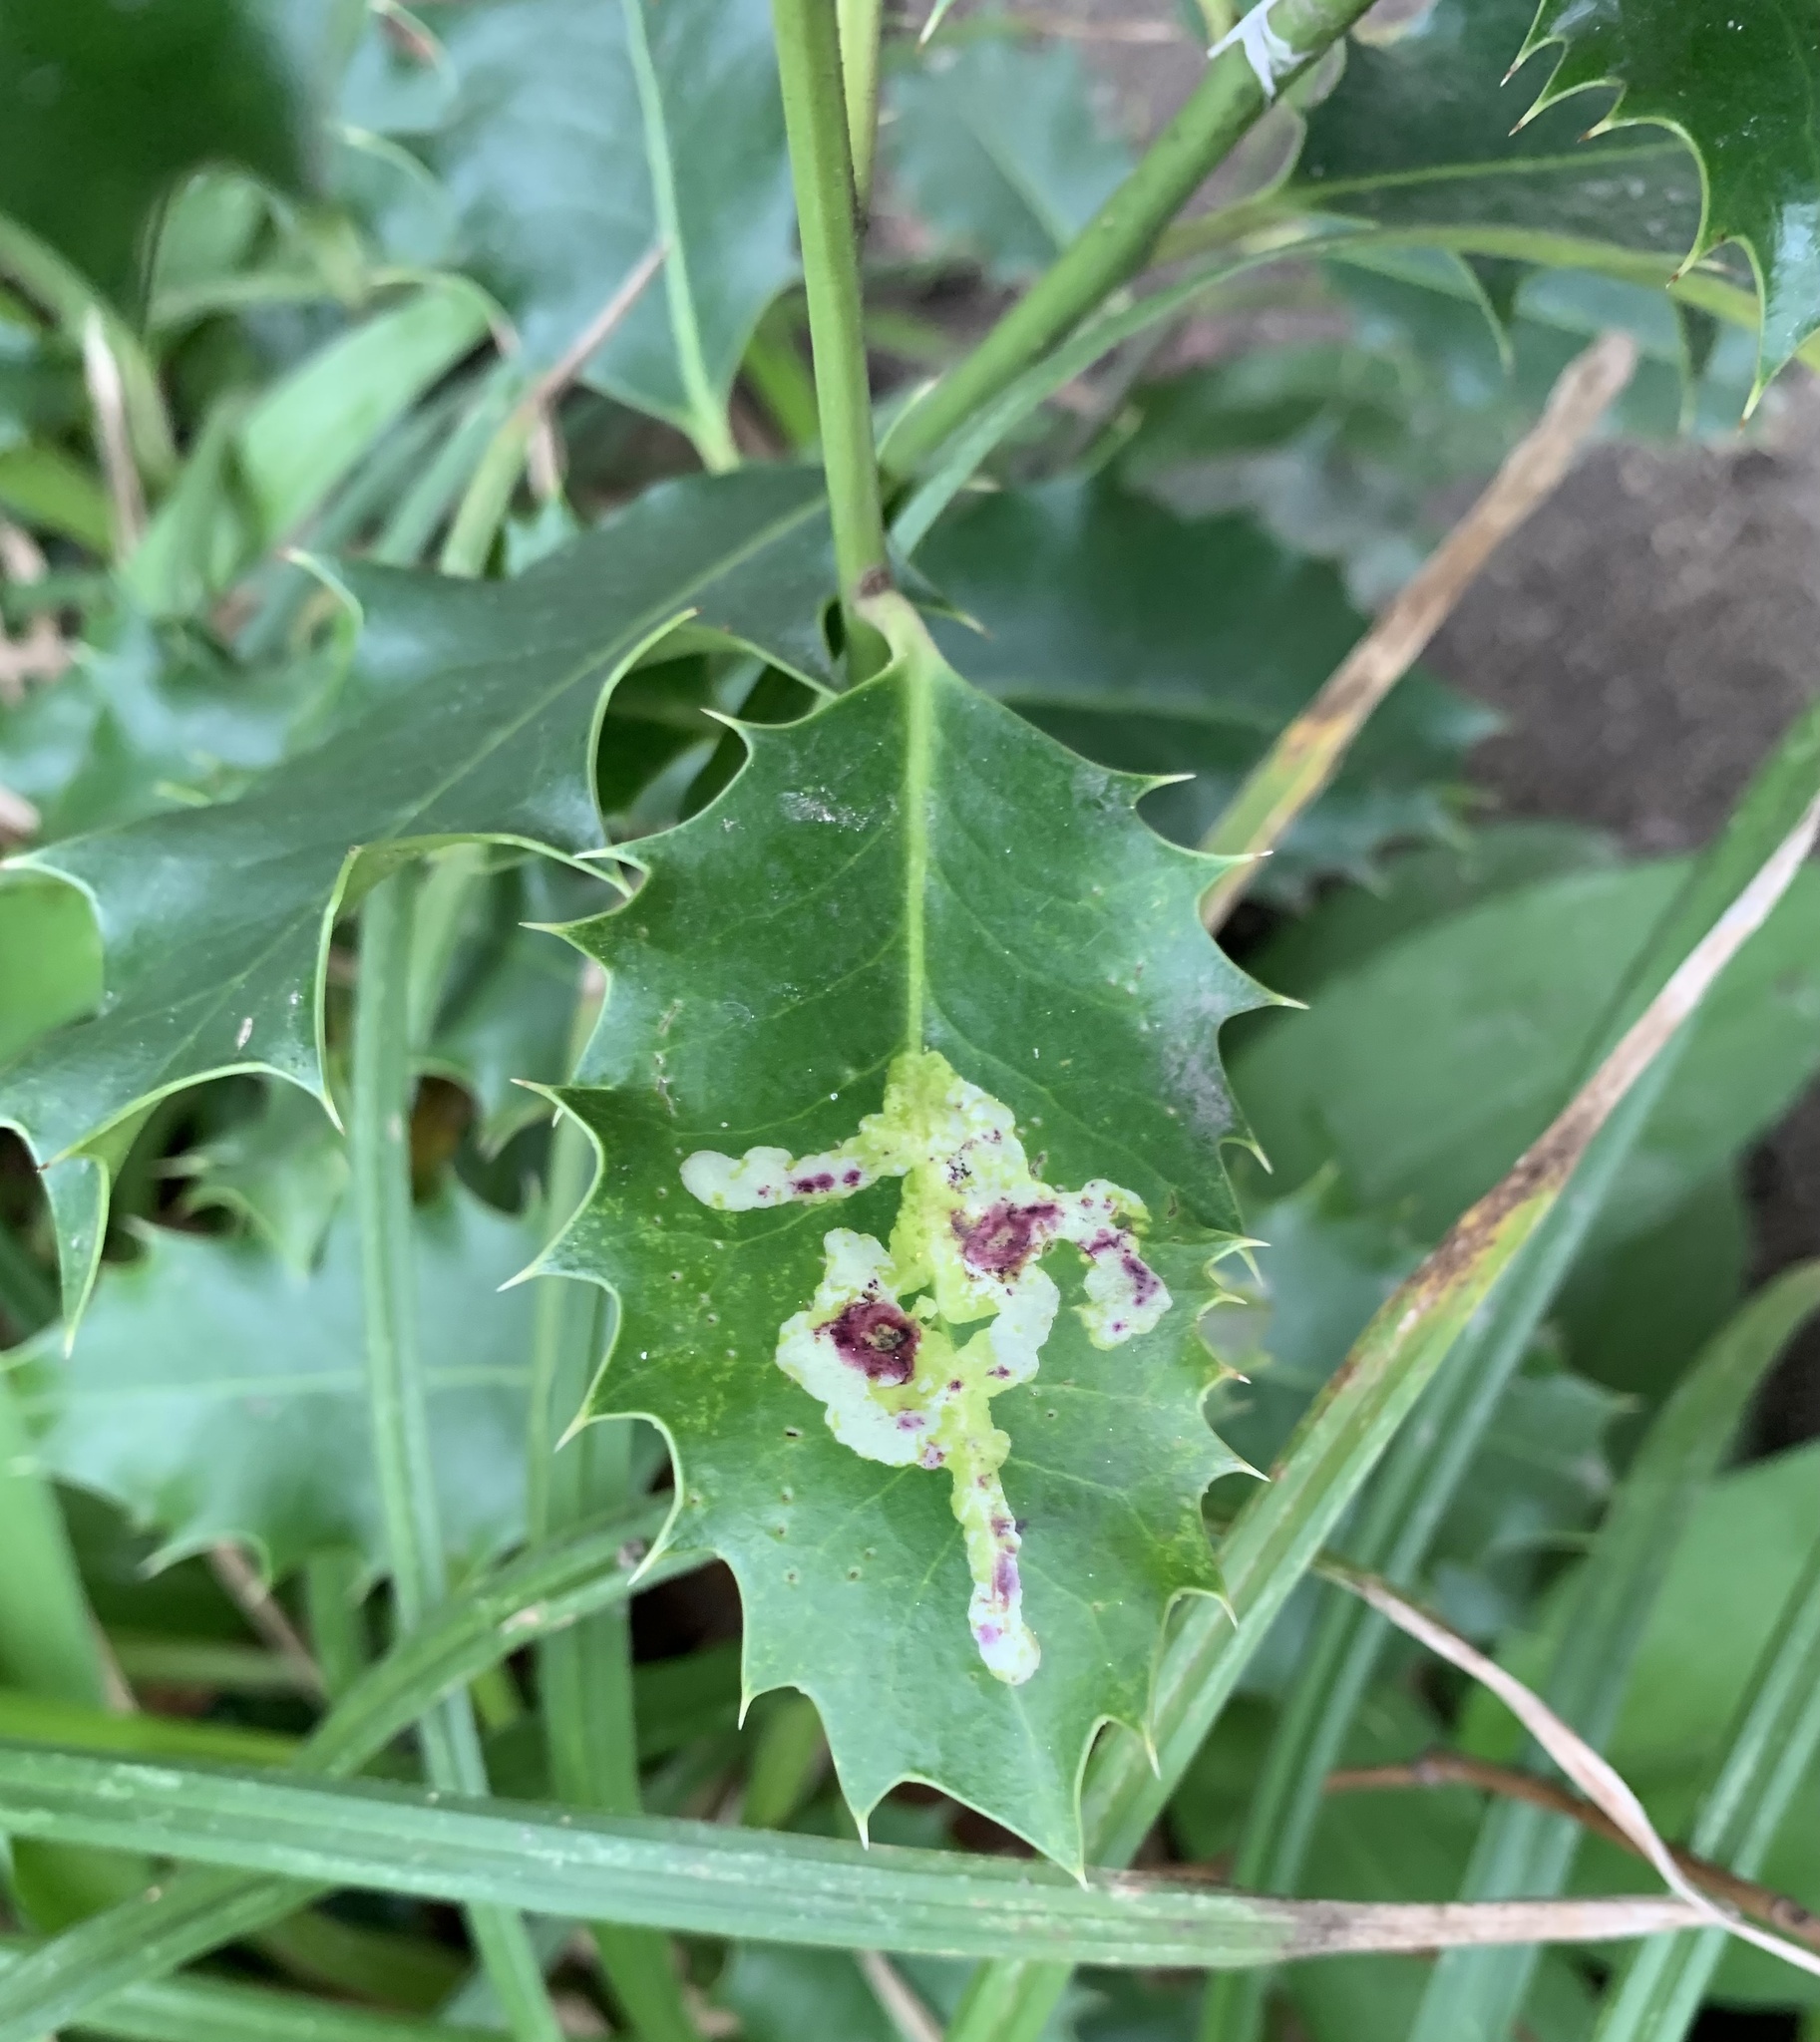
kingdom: Animalia
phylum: Arthropoda
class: Insecta
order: Diptera
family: Agromyzidae
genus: Phytomyza
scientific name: Phytomyza ilicis
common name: Holly leafminer
